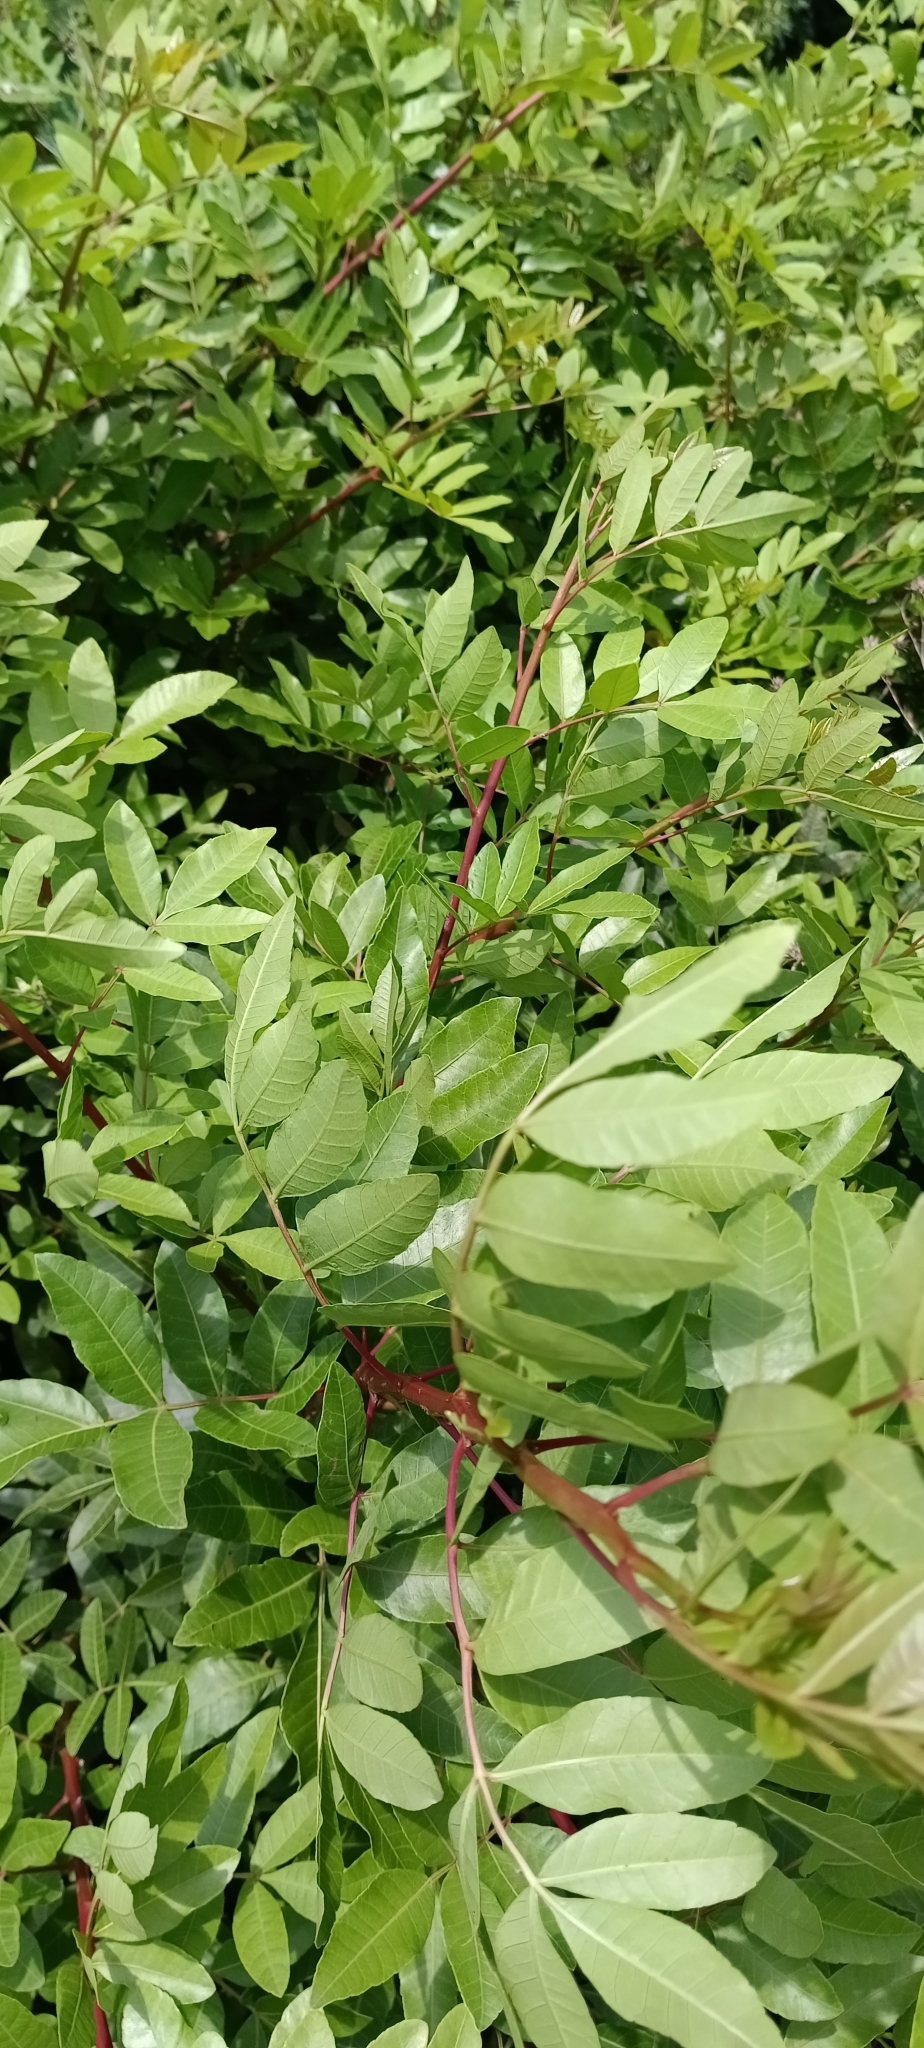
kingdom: Plantae
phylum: Tracheophyta
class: Magnoliopsida
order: Sapindales
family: Anacardiaceae
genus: Schinus
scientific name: Schinus terebinthifolia
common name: Brazilian peppertree
